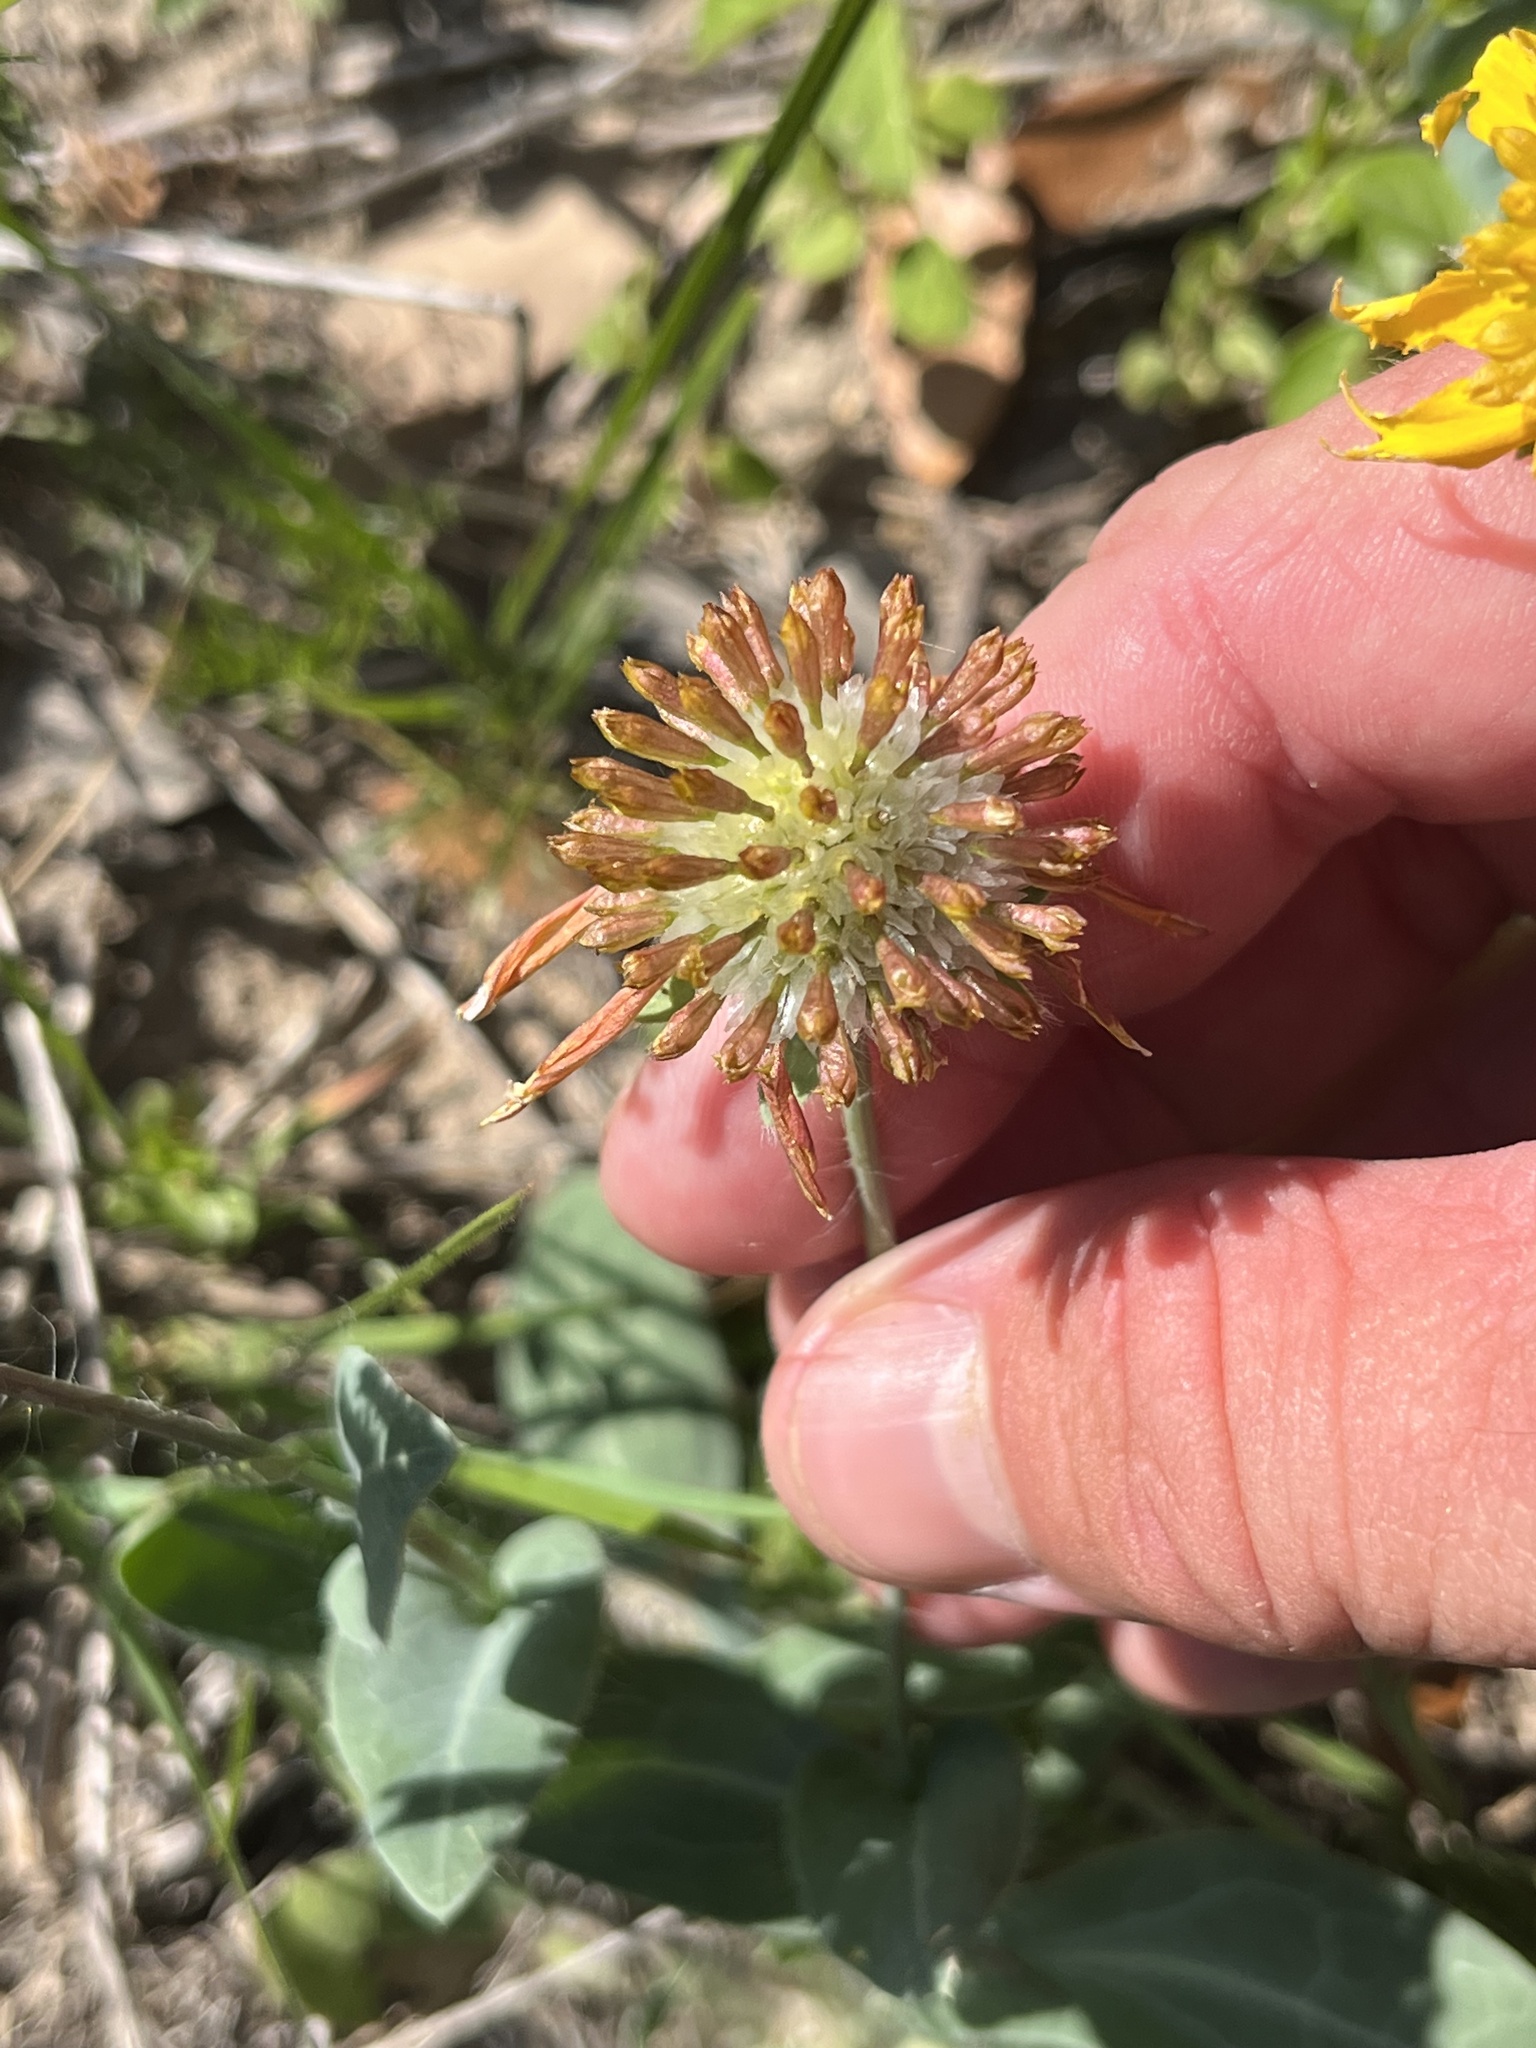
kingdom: Plantae
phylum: Tracheophyta
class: Magnoliopsida
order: Asterales
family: Asteraceae
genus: Amblyolepis
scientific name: Amblyolepis setigera
